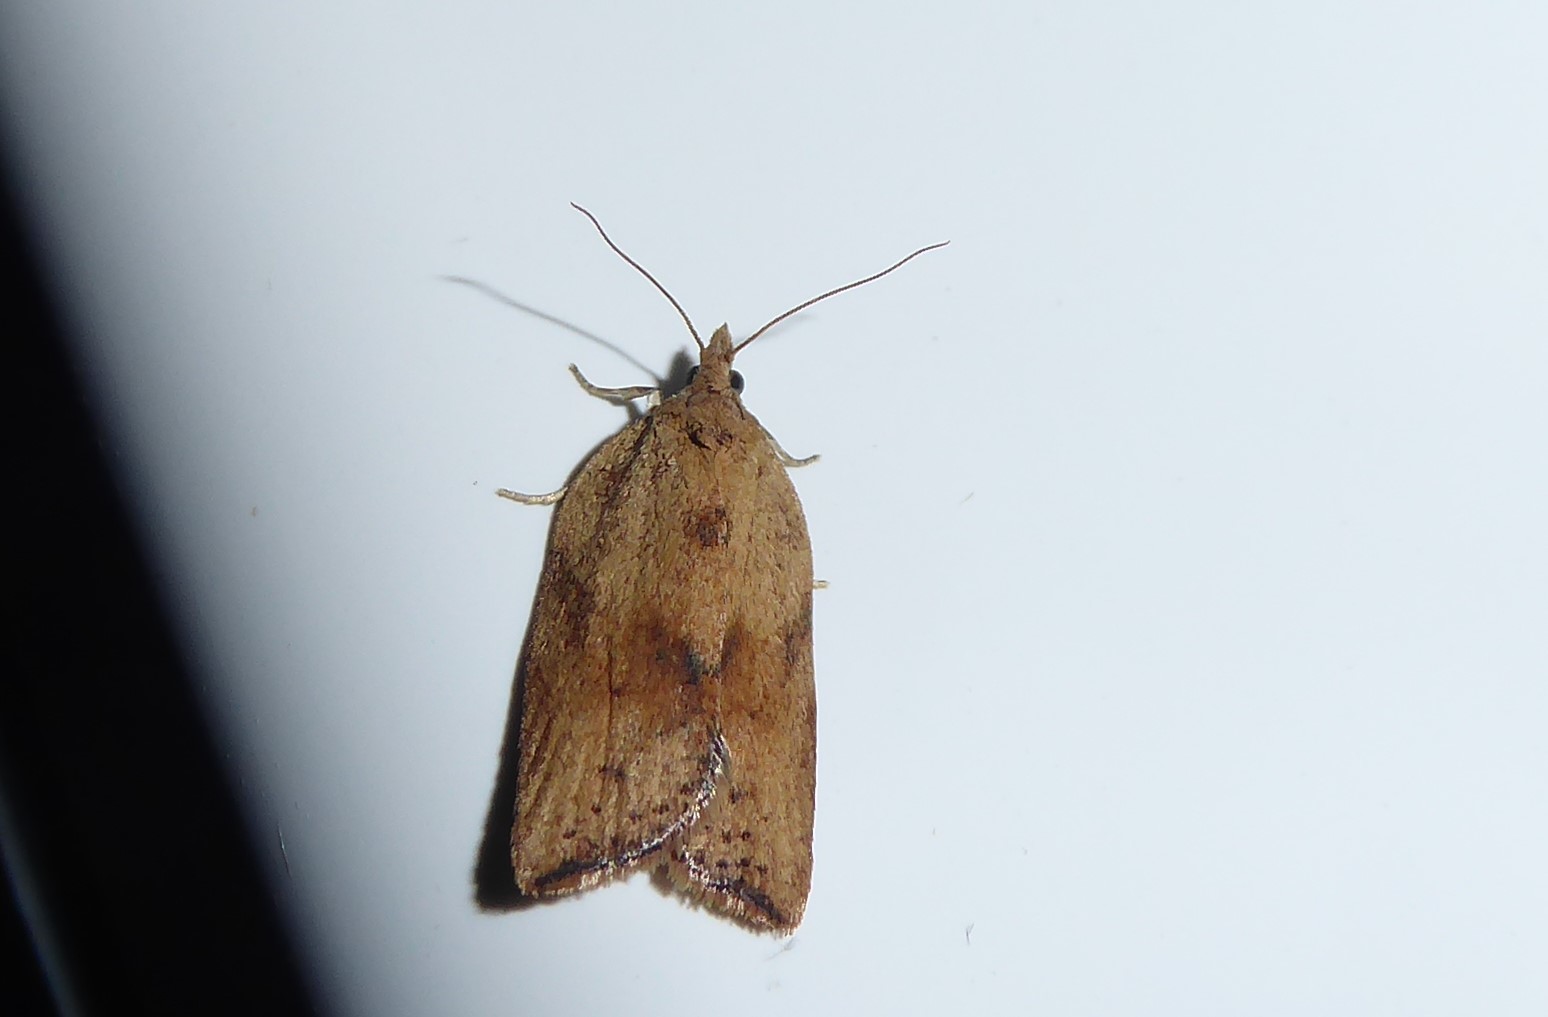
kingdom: Animalia
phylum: Arthropoda
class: Insecta
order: Lepidoptera
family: Tortricidae
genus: Epiphyas
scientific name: Epiphyas postvittana
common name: Light brown apple moth
